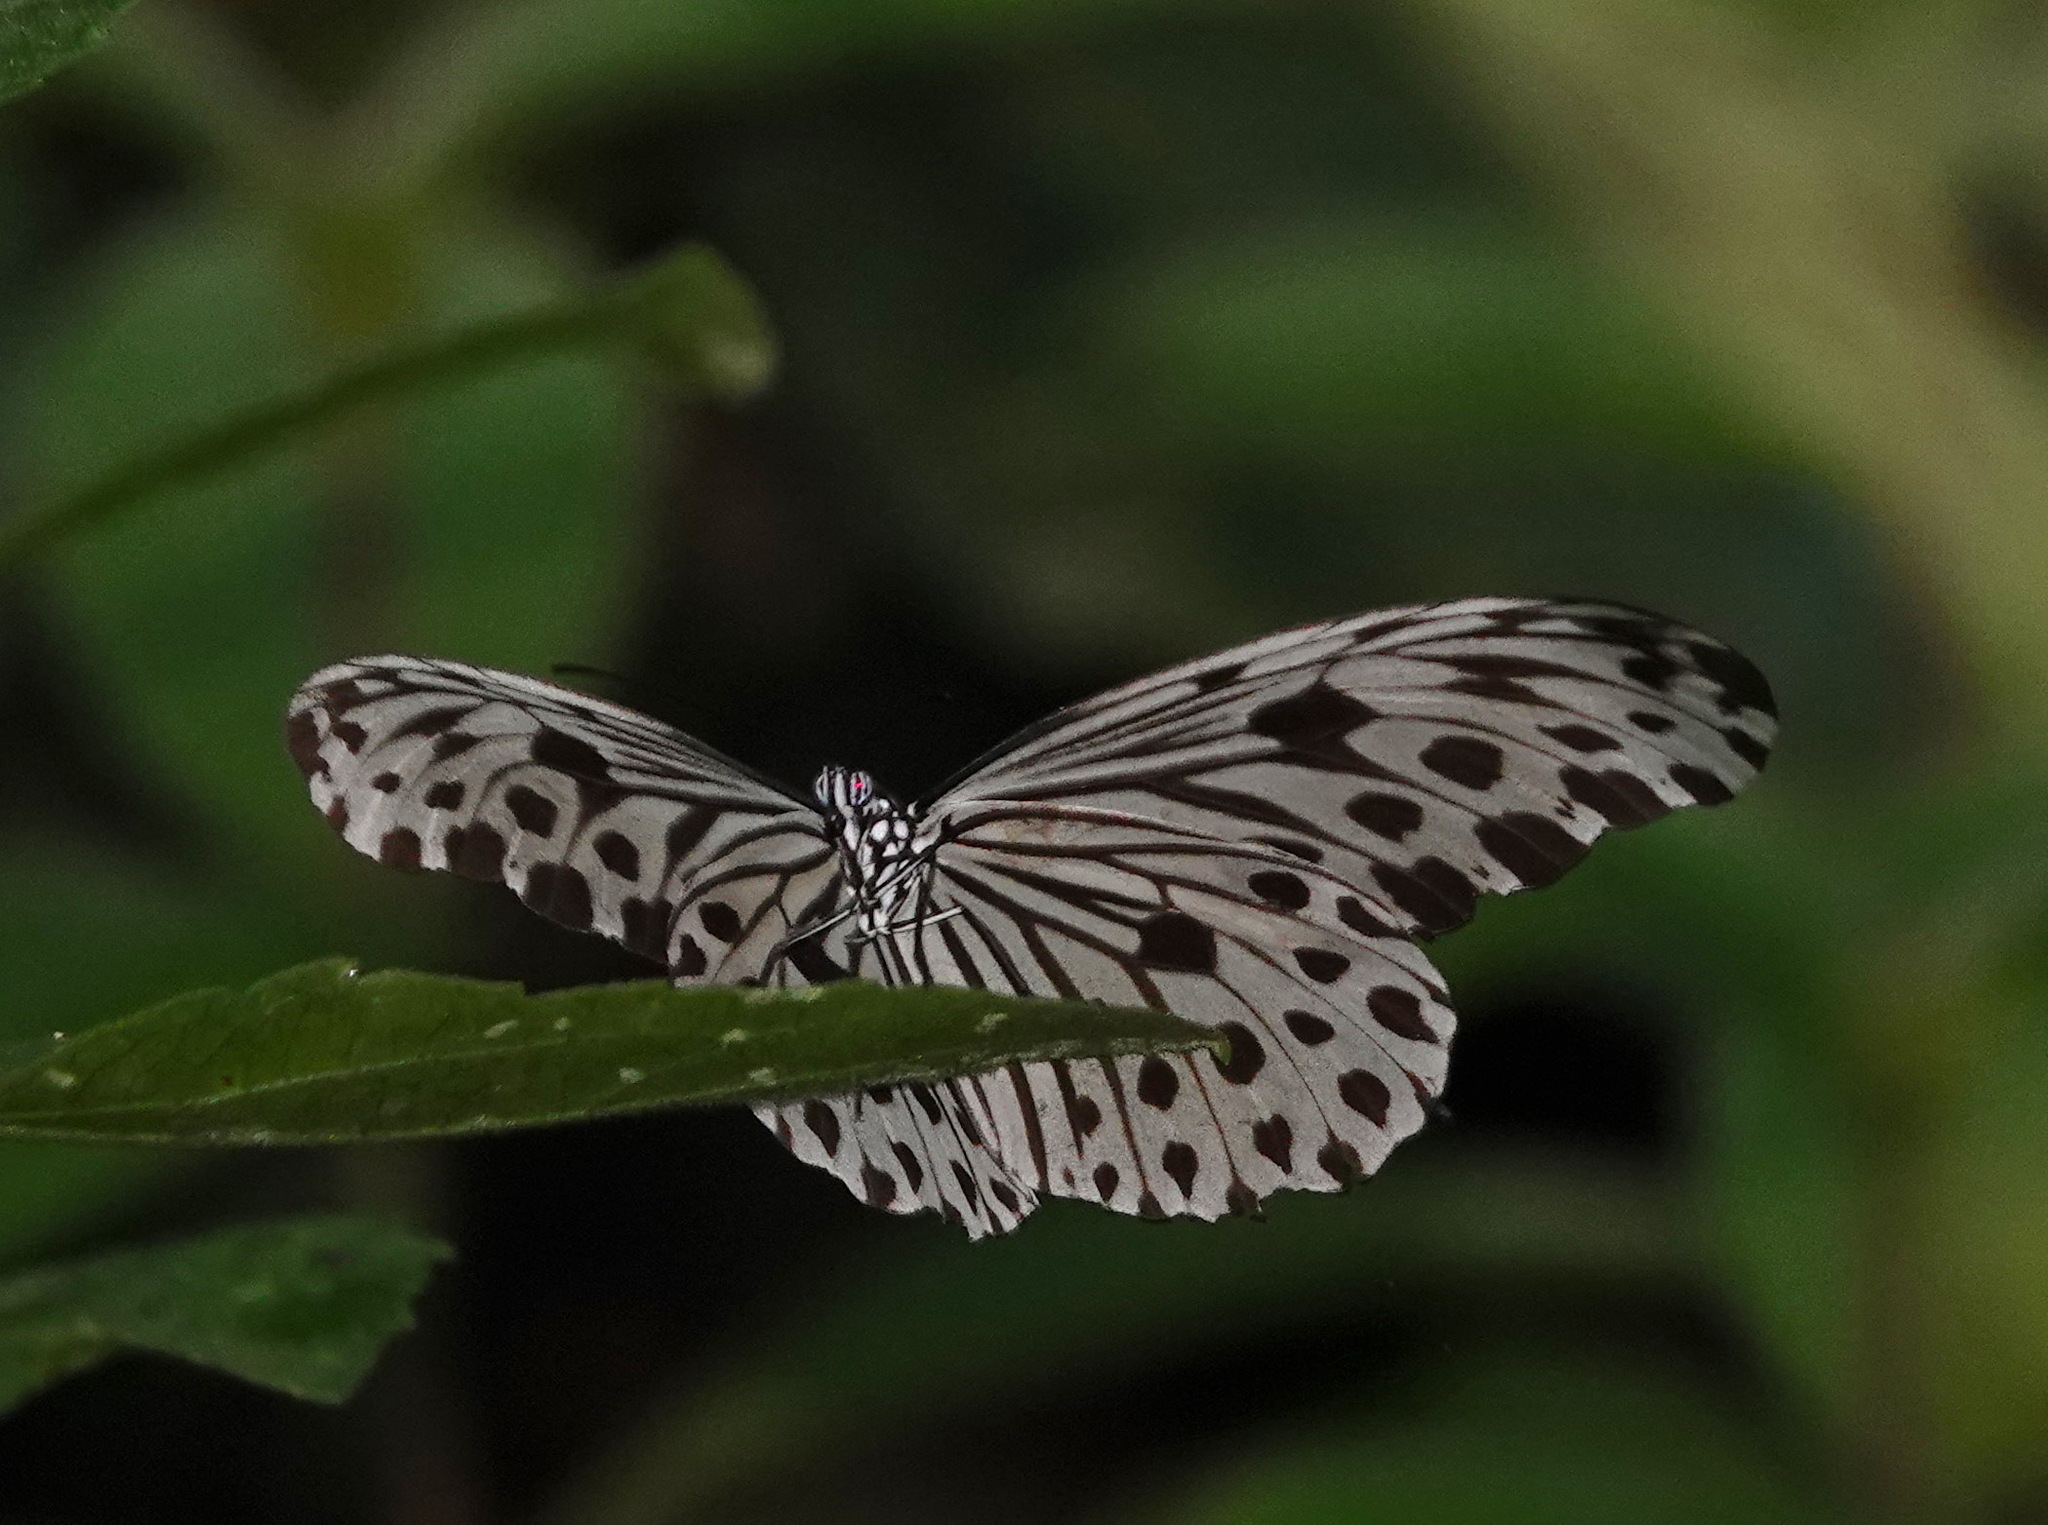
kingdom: Animalia
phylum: Arthropoda
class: Insecta
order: Lepidoptera
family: Nymphalidae
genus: Ideopsis
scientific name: Ideopsis gaura
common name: Smaller wood nymph
